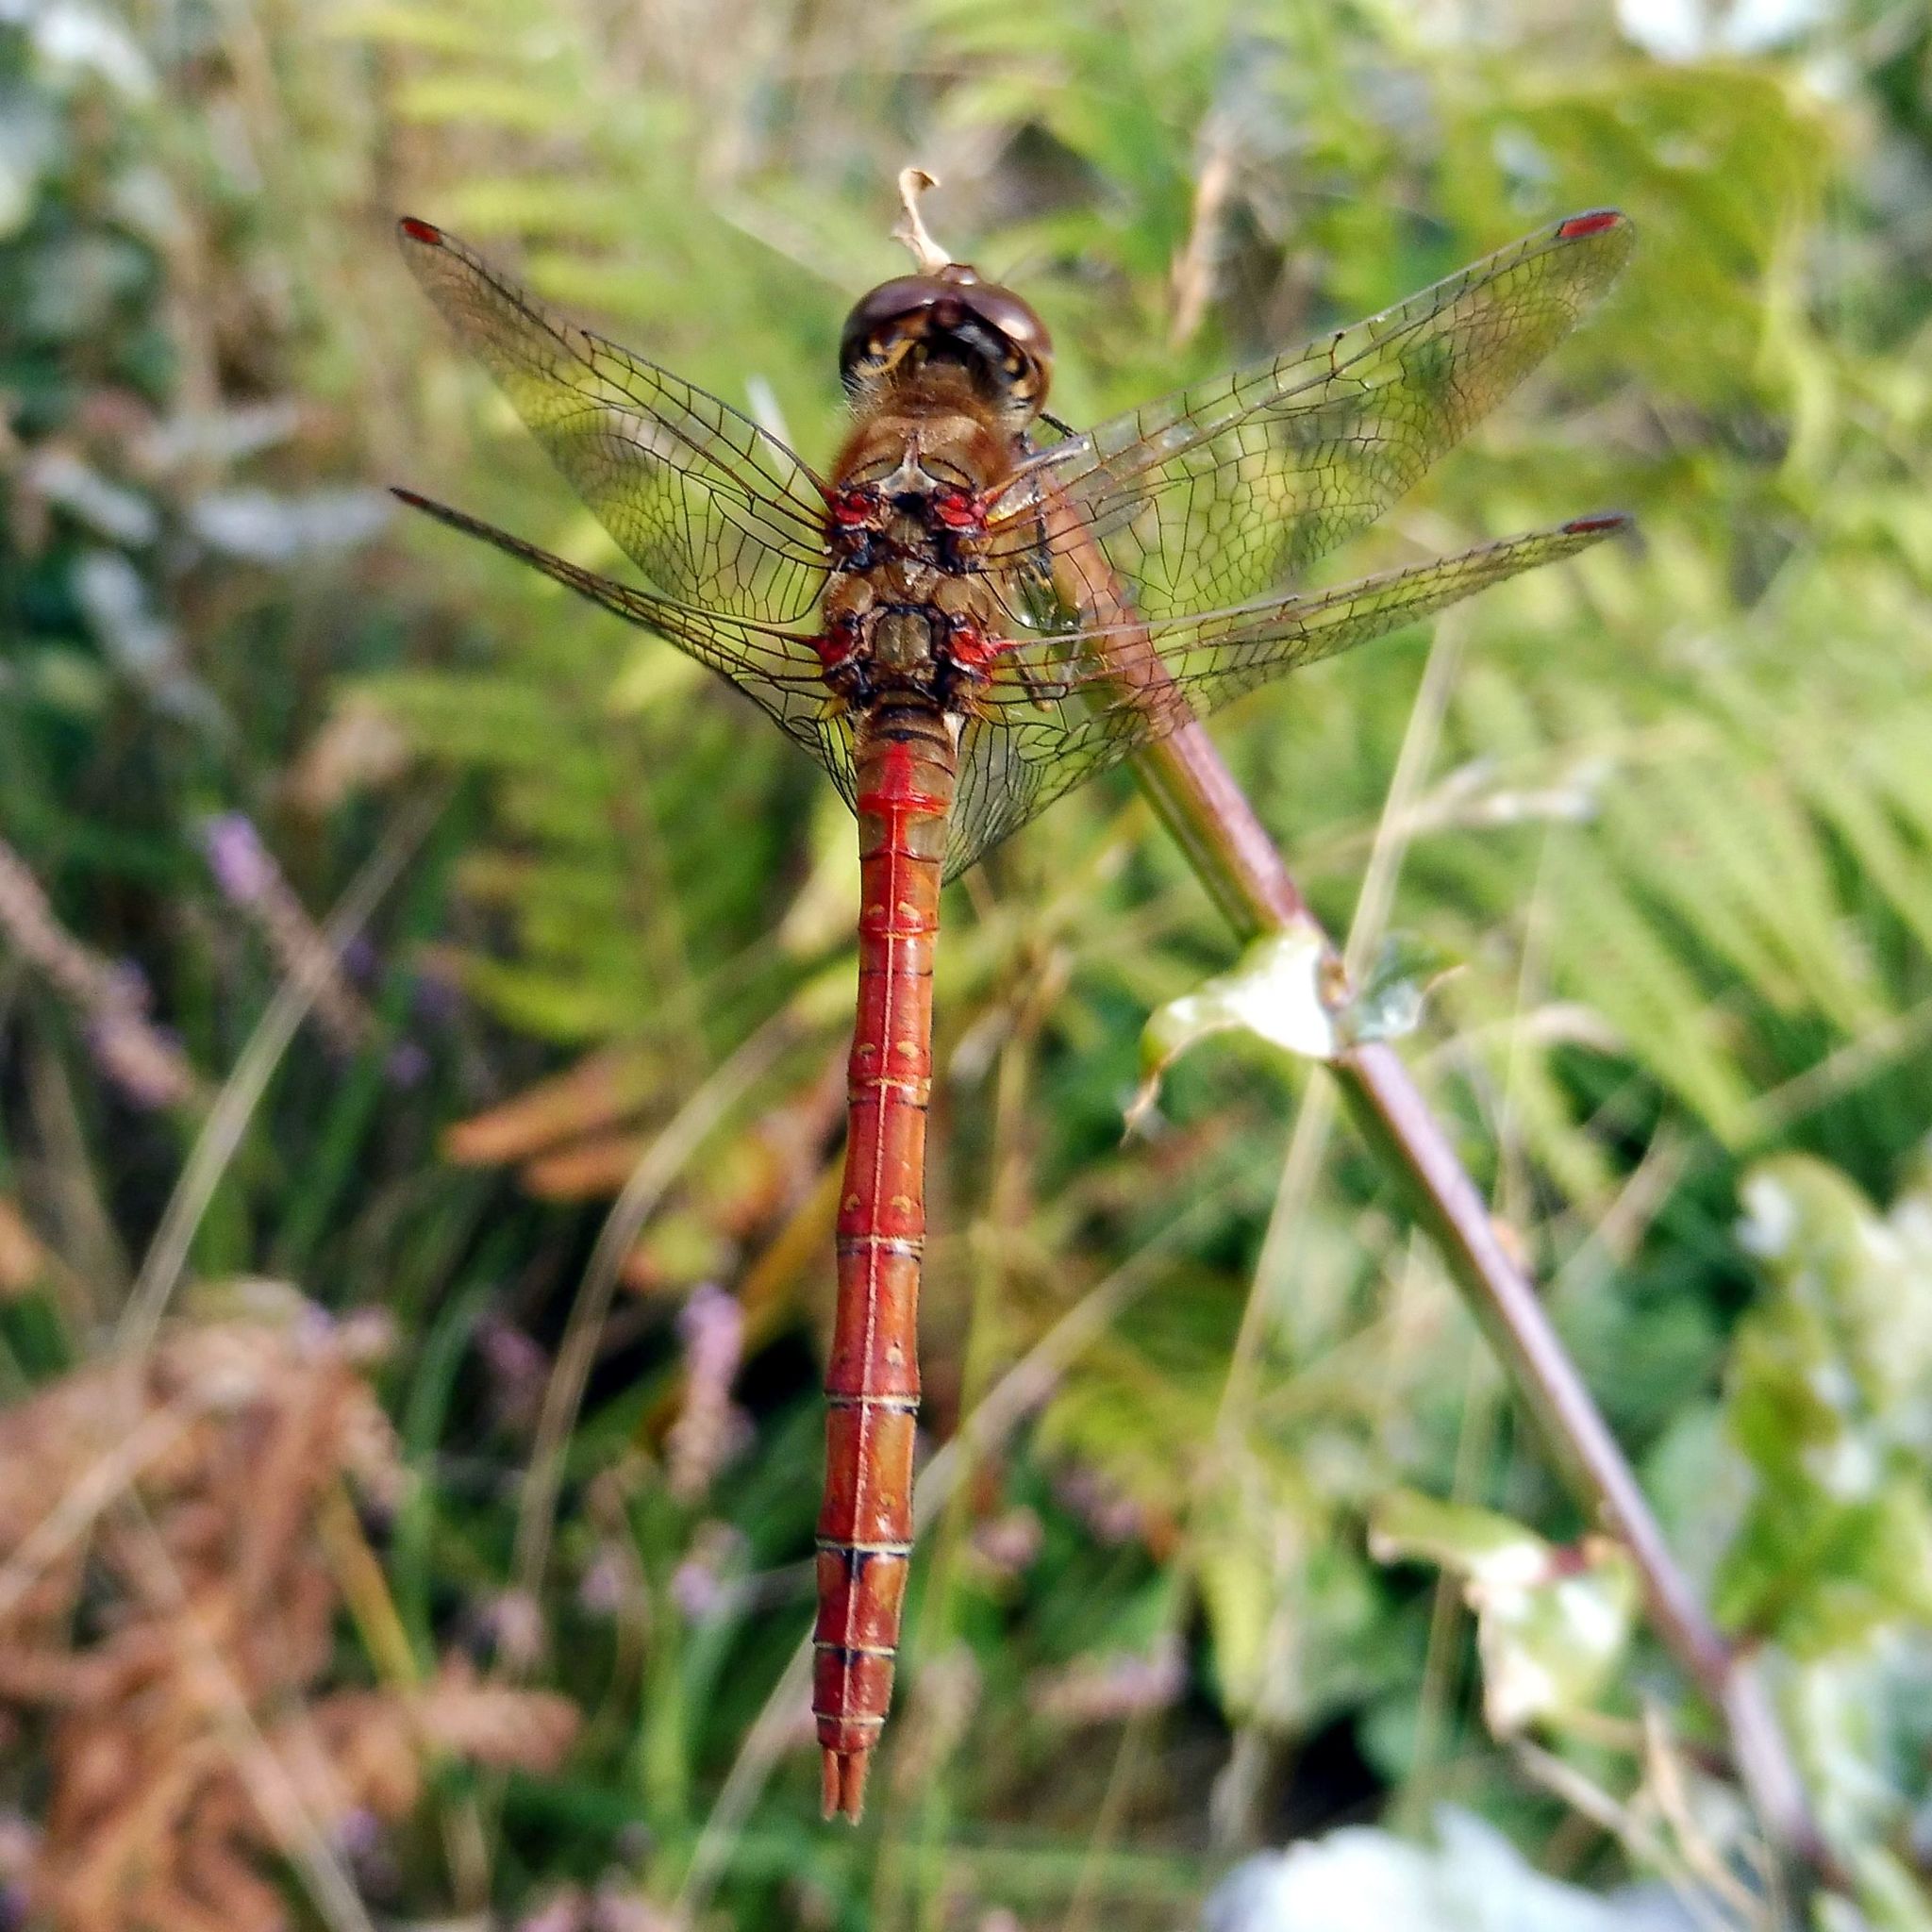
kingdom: Animalia
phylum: Arthropoda
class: Insecta
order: Odonata
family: Libellulidae
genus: Sympetrum
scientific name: Sympetrum striolatum
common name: Common darter
